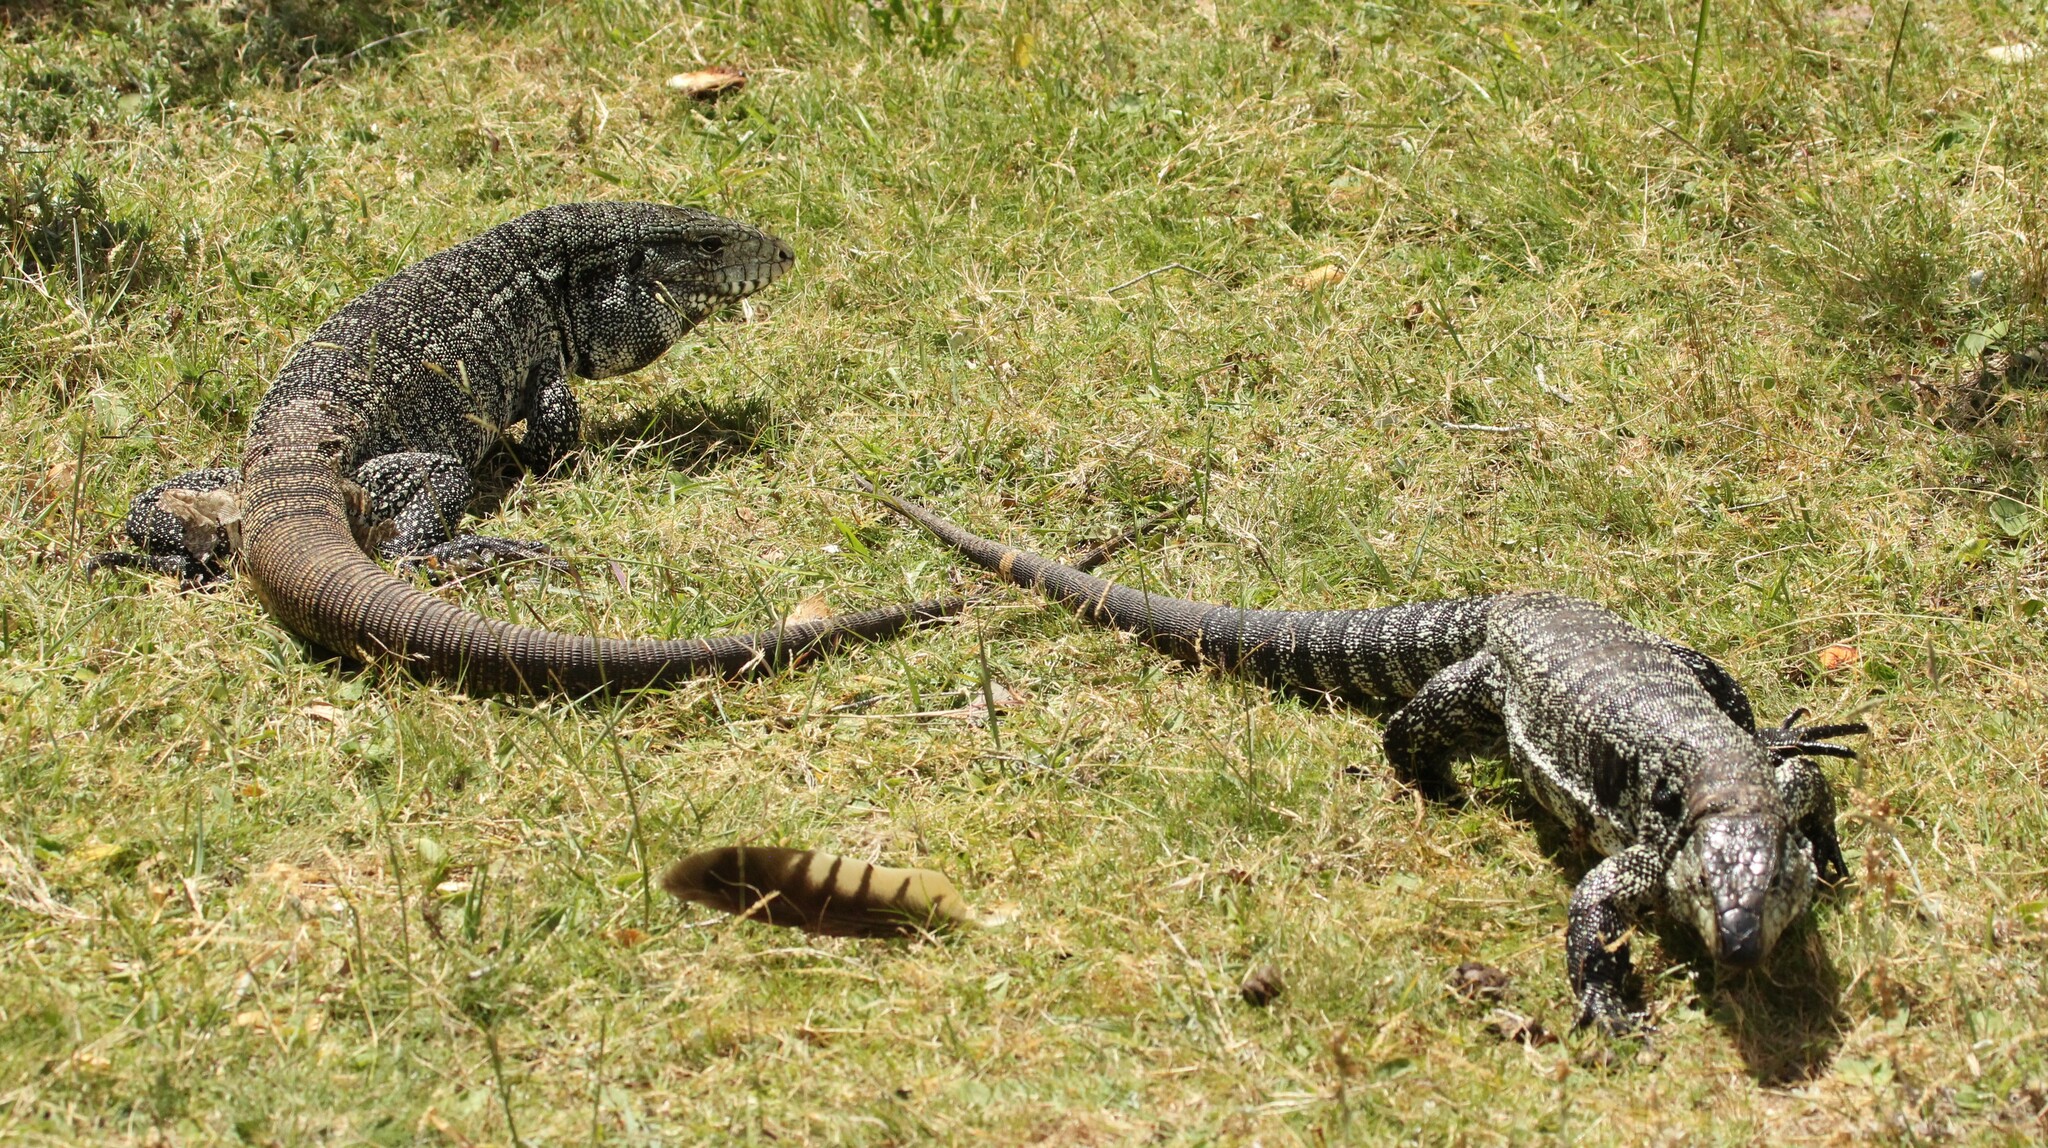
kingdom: Animalia
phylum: Chordata
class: Squamata
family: Teiidae
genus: Salvator
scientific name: Salvator merianae
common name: Argentine black and white tegu
